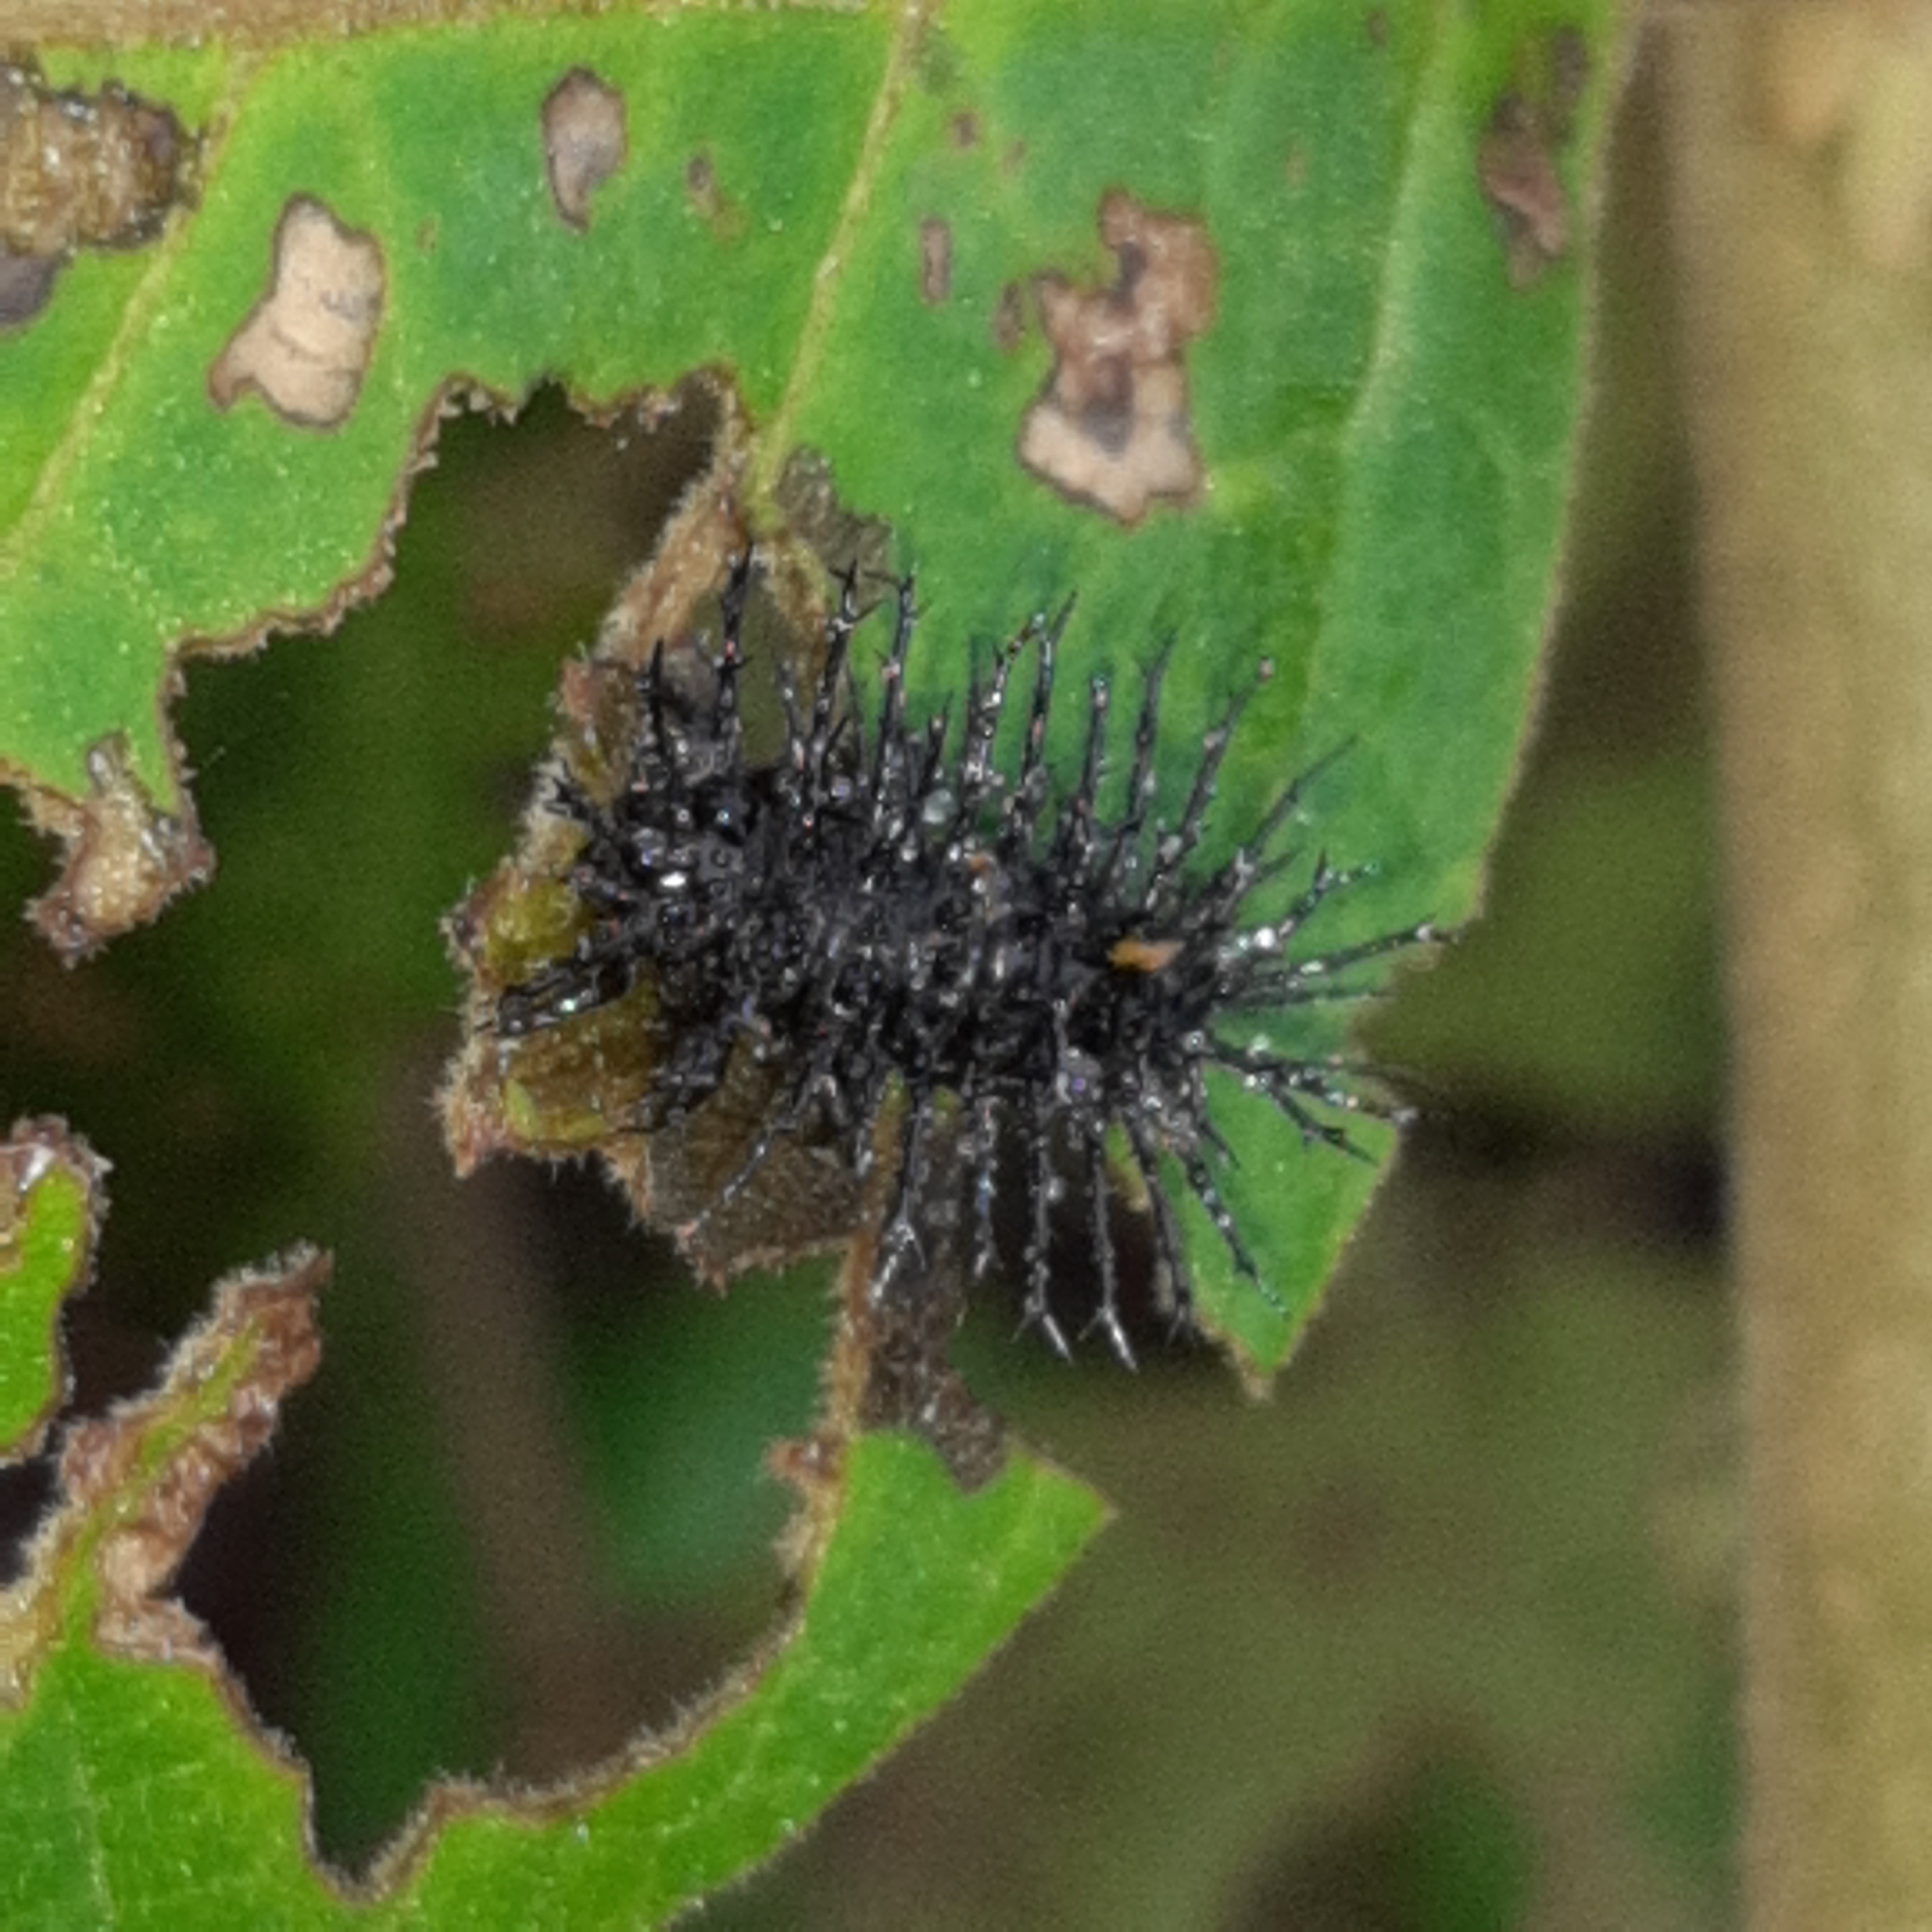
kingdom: Animalia
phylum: Arthropoda
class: Insecta
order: Coleoptera
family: Coccinellidae
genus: Epilachna
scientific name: Epilachna
